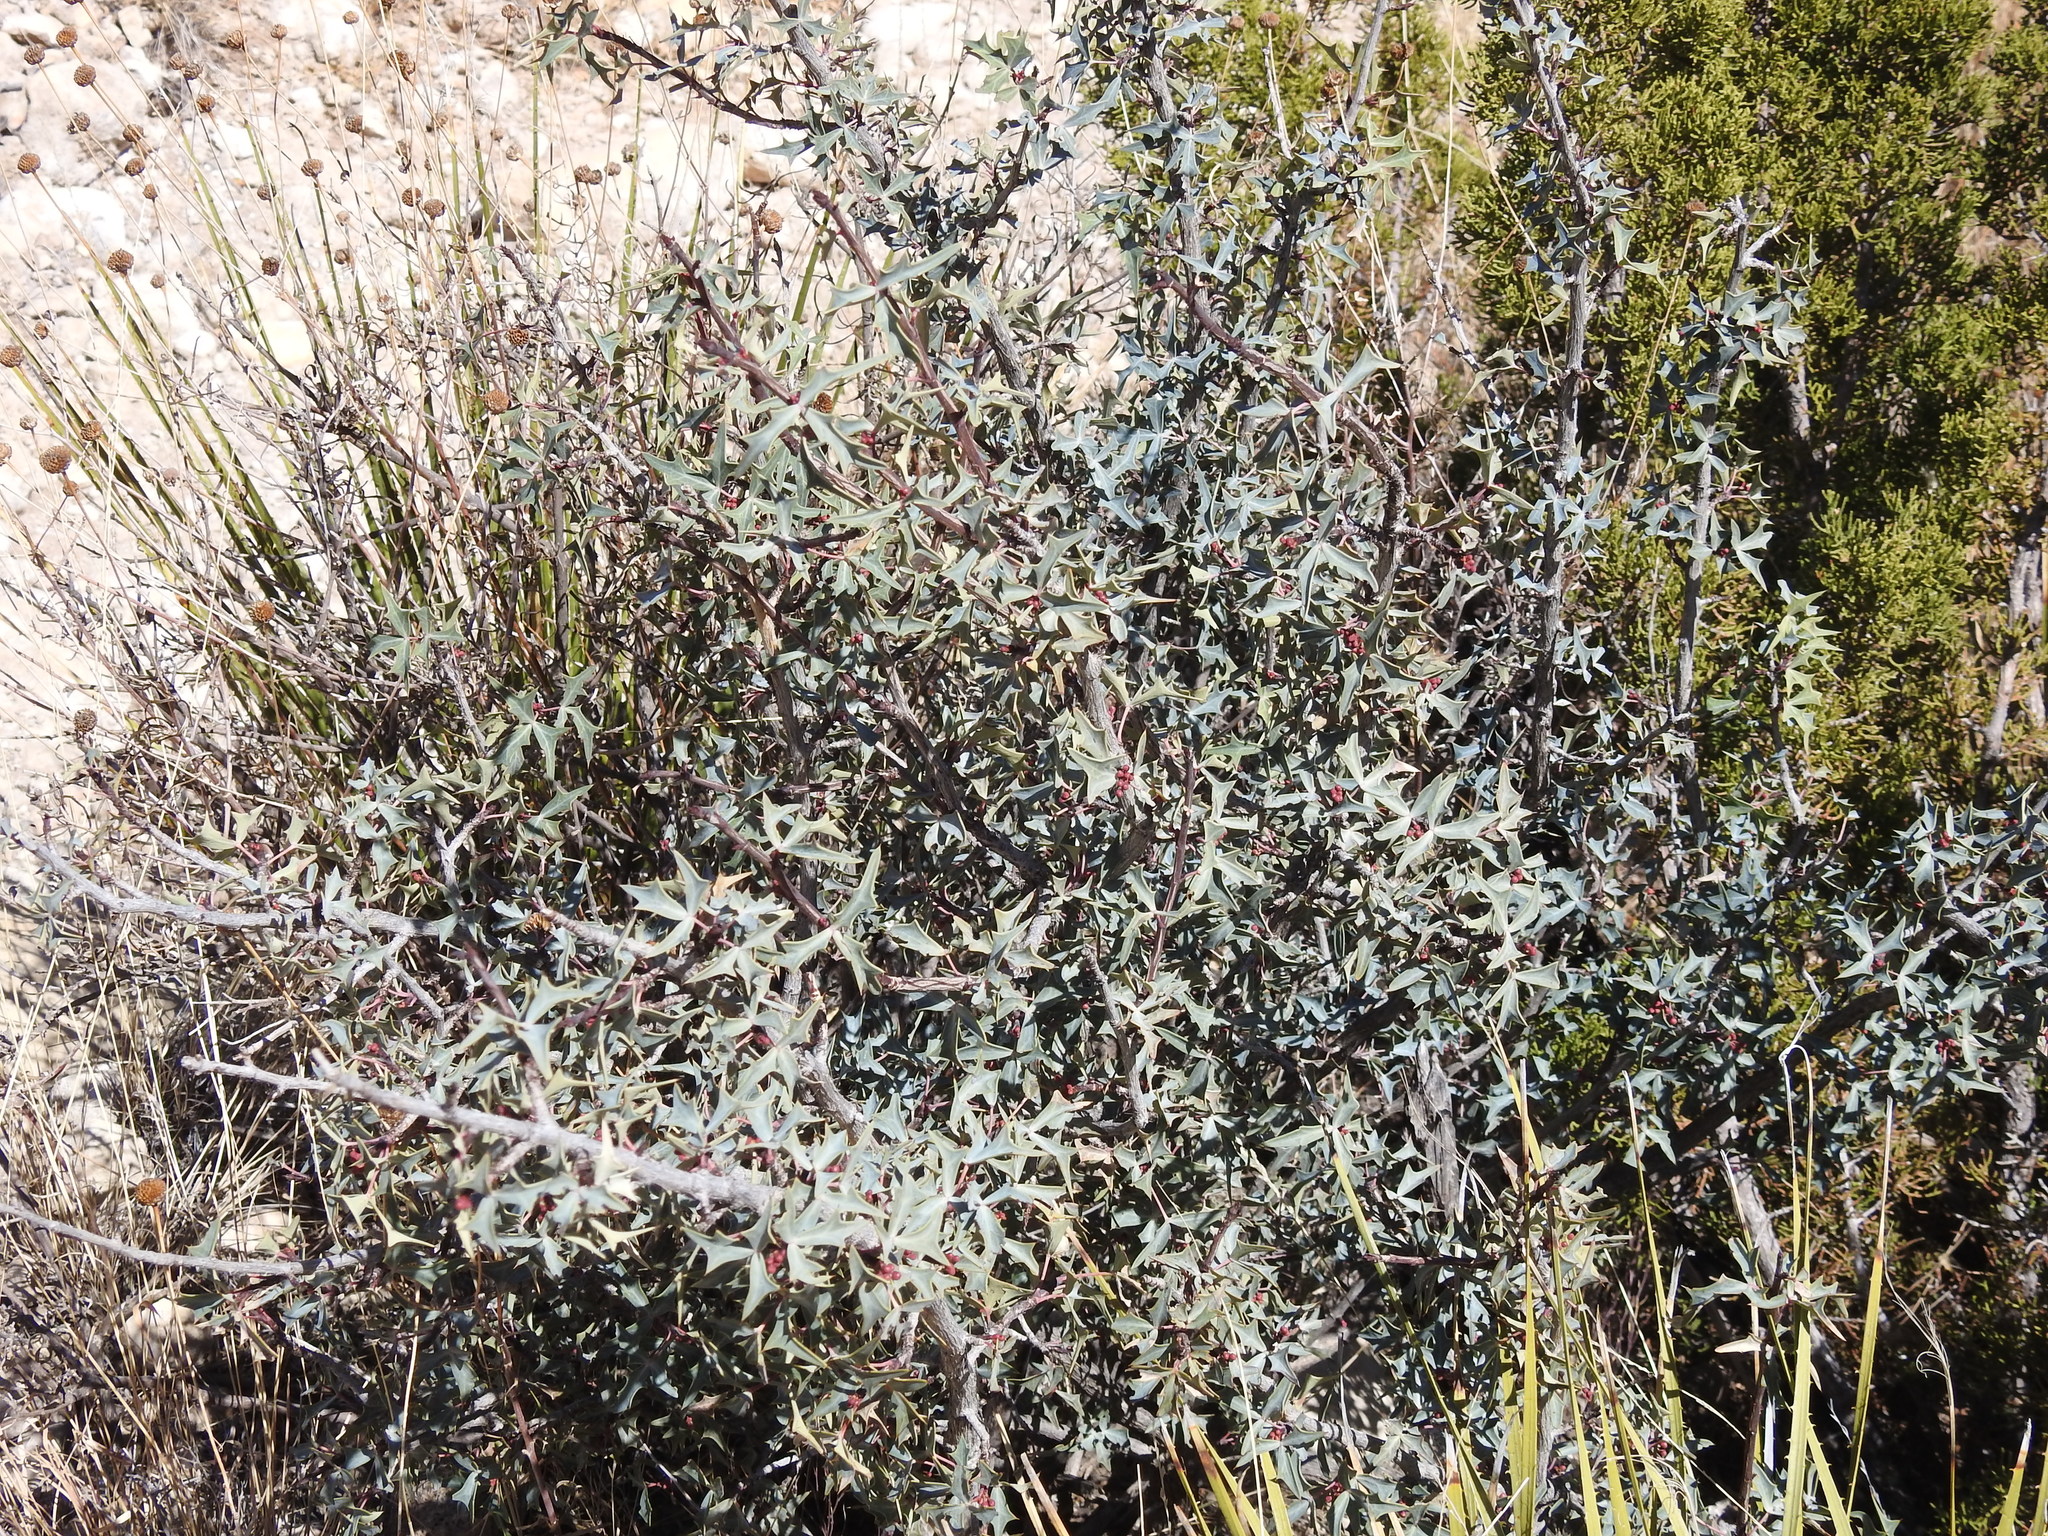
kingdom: Plantae
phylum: Tracheophyta
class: Magnoliopsida
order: Ranunculales
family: Berberidaceae
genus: Alloberberis
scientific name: Alloberberis trifoliolata
